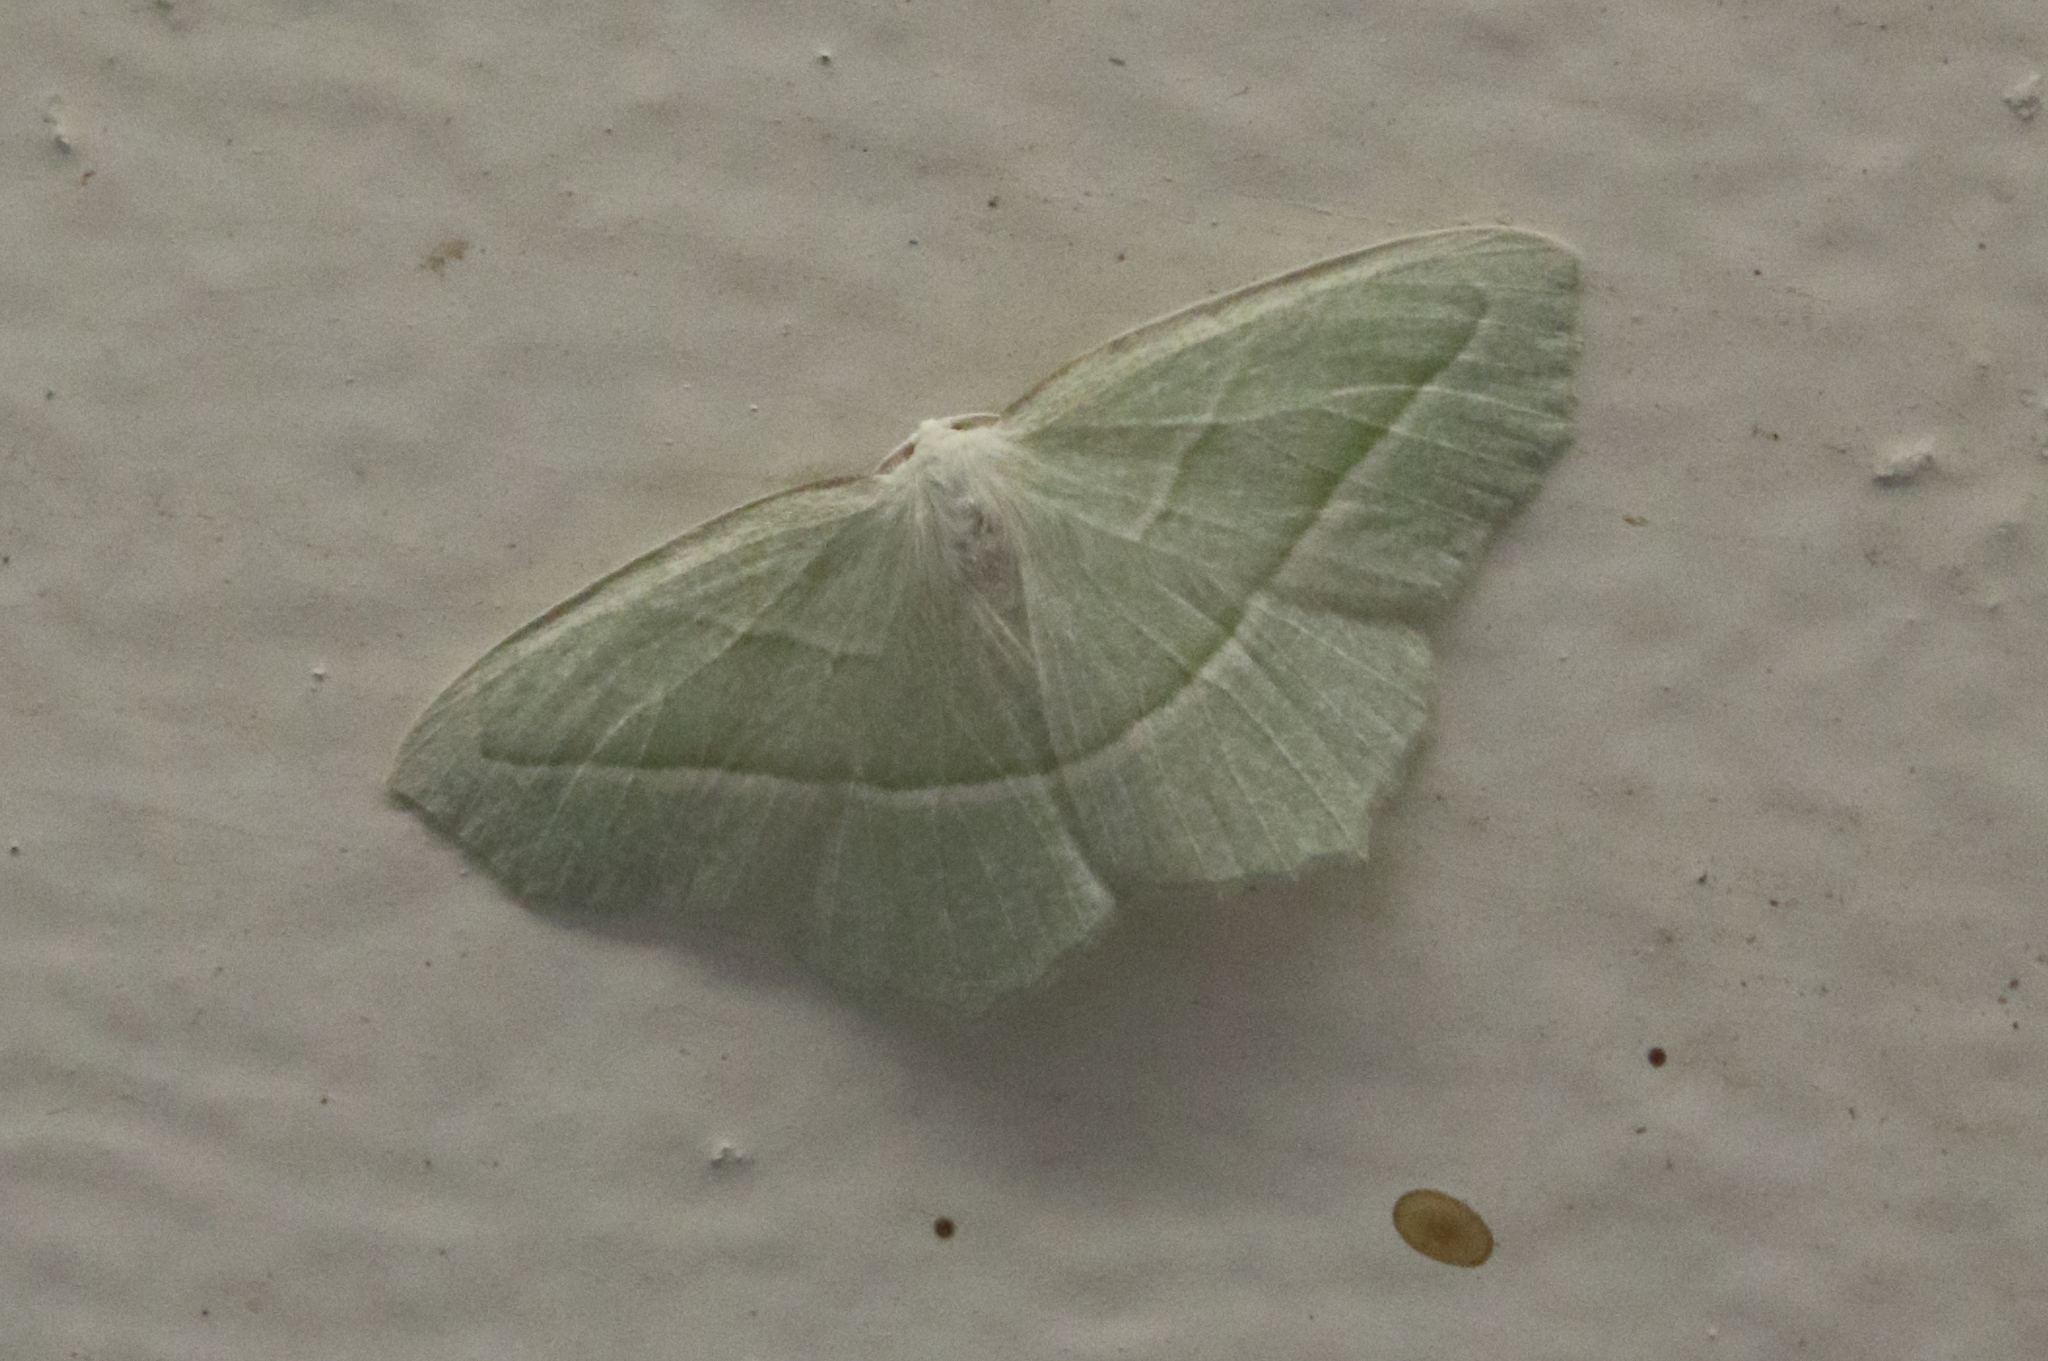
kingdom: Animalia
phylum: Arthropoda
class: Insecta
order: Lepidoptera
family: Geometridae
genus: Campaea
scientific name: Campaea perlata
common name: Fringed looper
